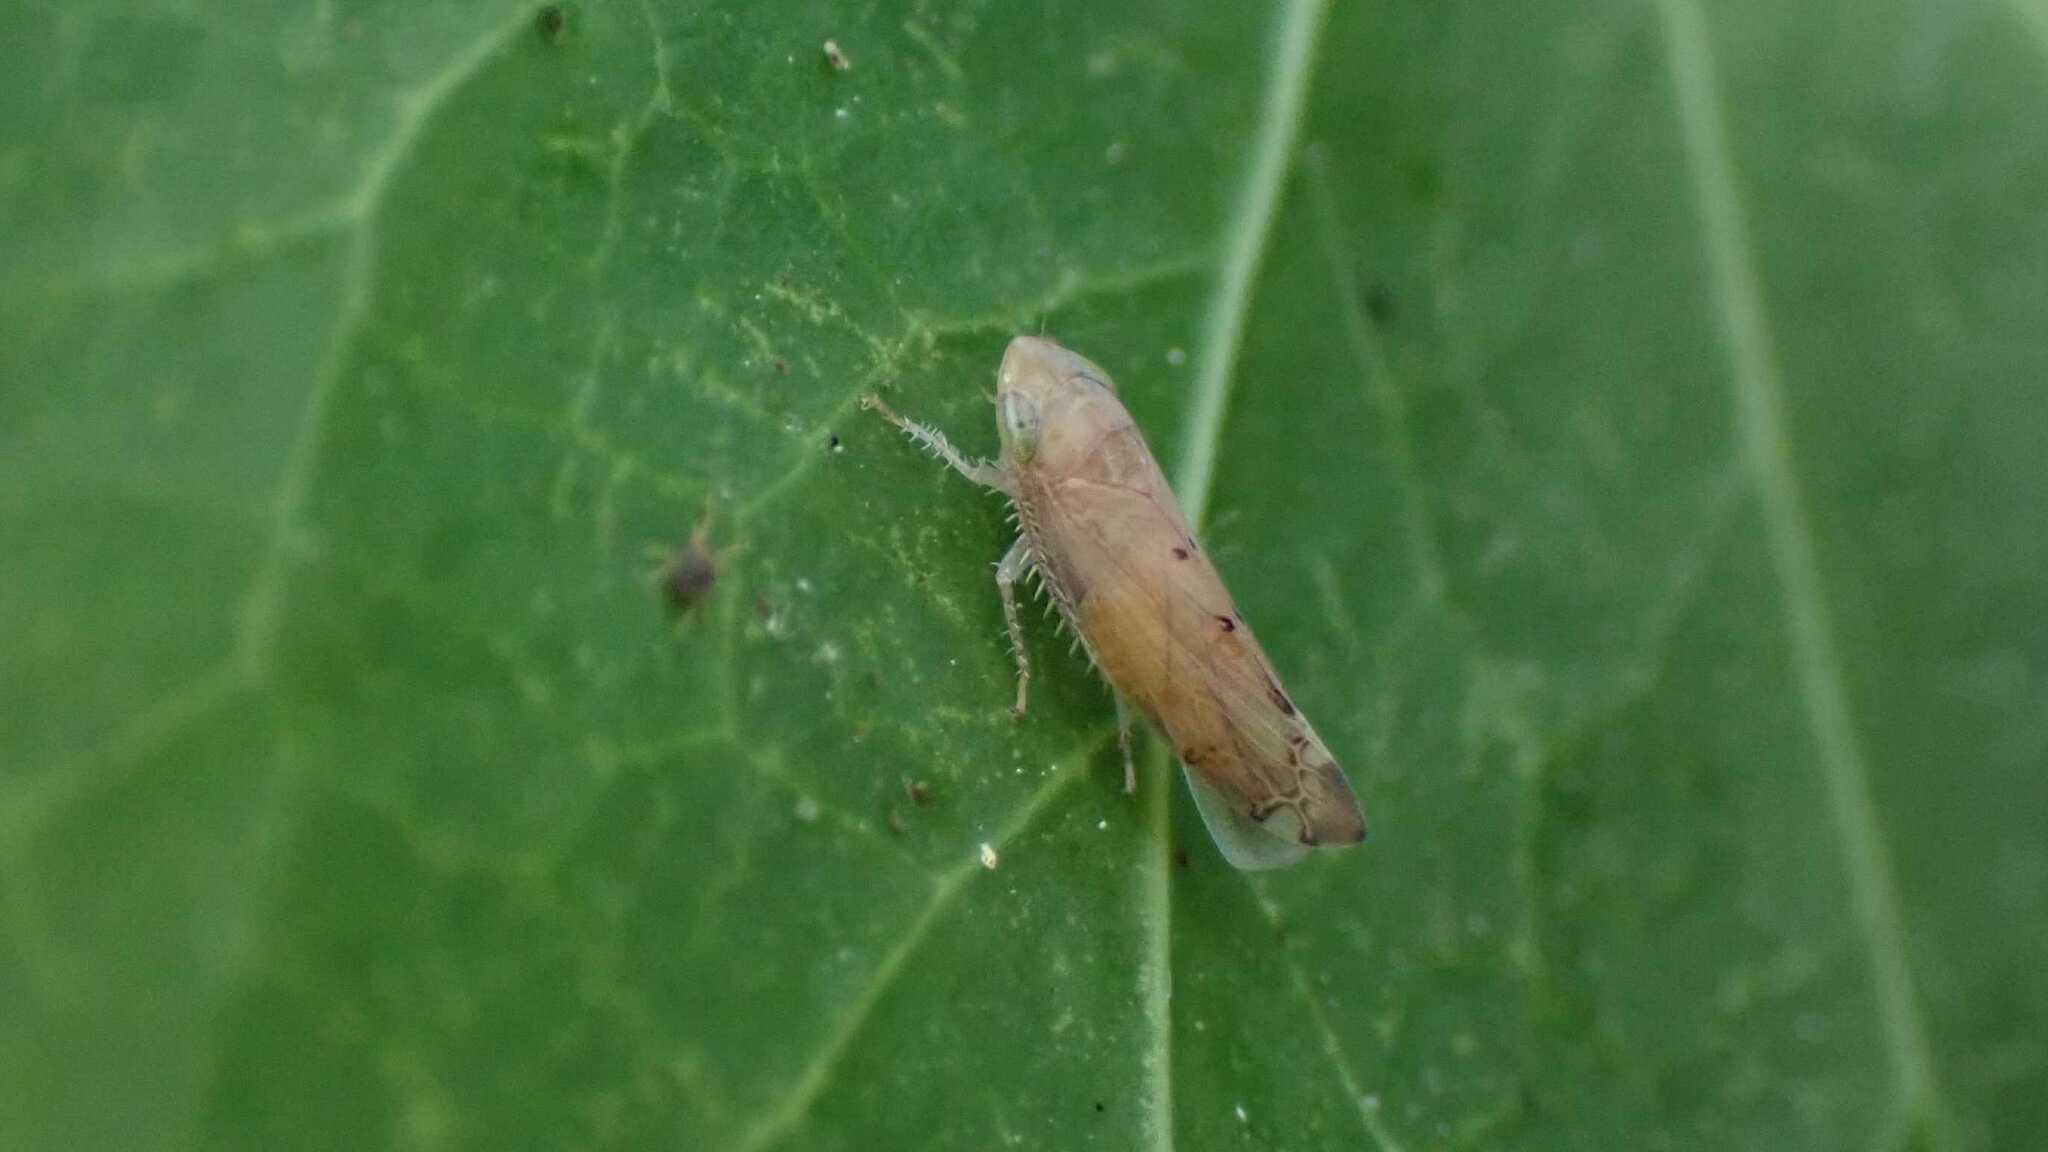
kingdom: Animalia
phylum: Arthropoda
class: Insecta
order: Hemiptera
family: Cicadellidae
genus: Synophropsis
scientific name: Synophropsis lauri
